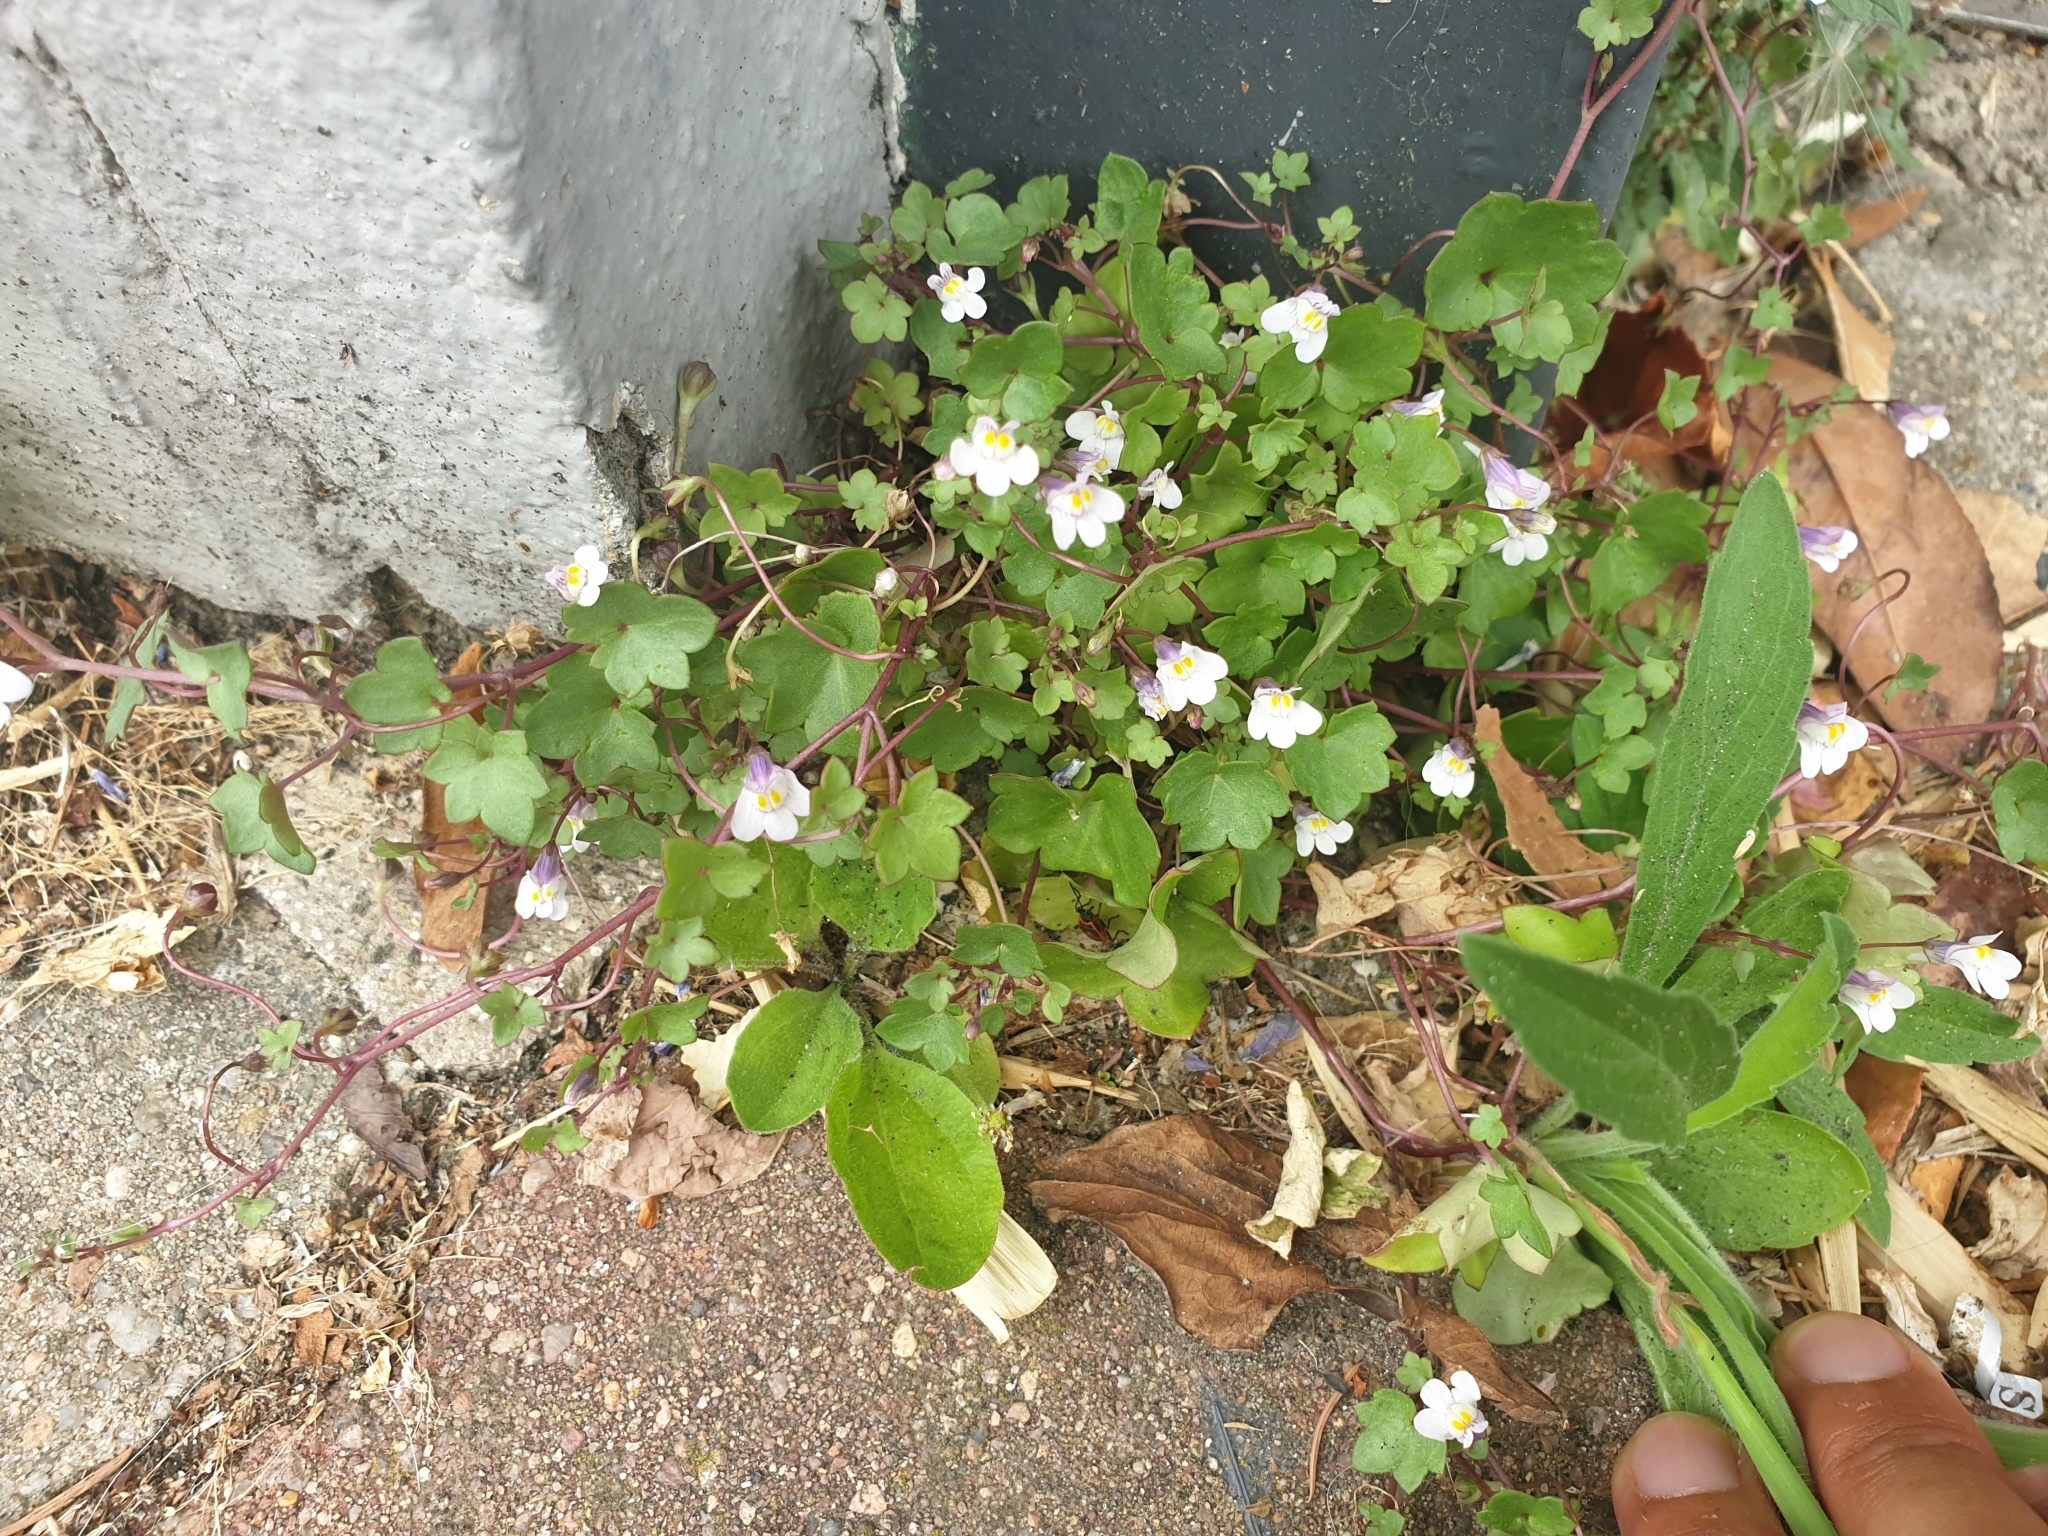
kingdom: Plantae
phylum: Tracheophyta
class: Magnoliopsida
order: Lamiales
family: Plantaginaceae
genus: Cymbalaria
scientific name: Cymbalaria muralis
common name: Ivy-leaved toadflax
